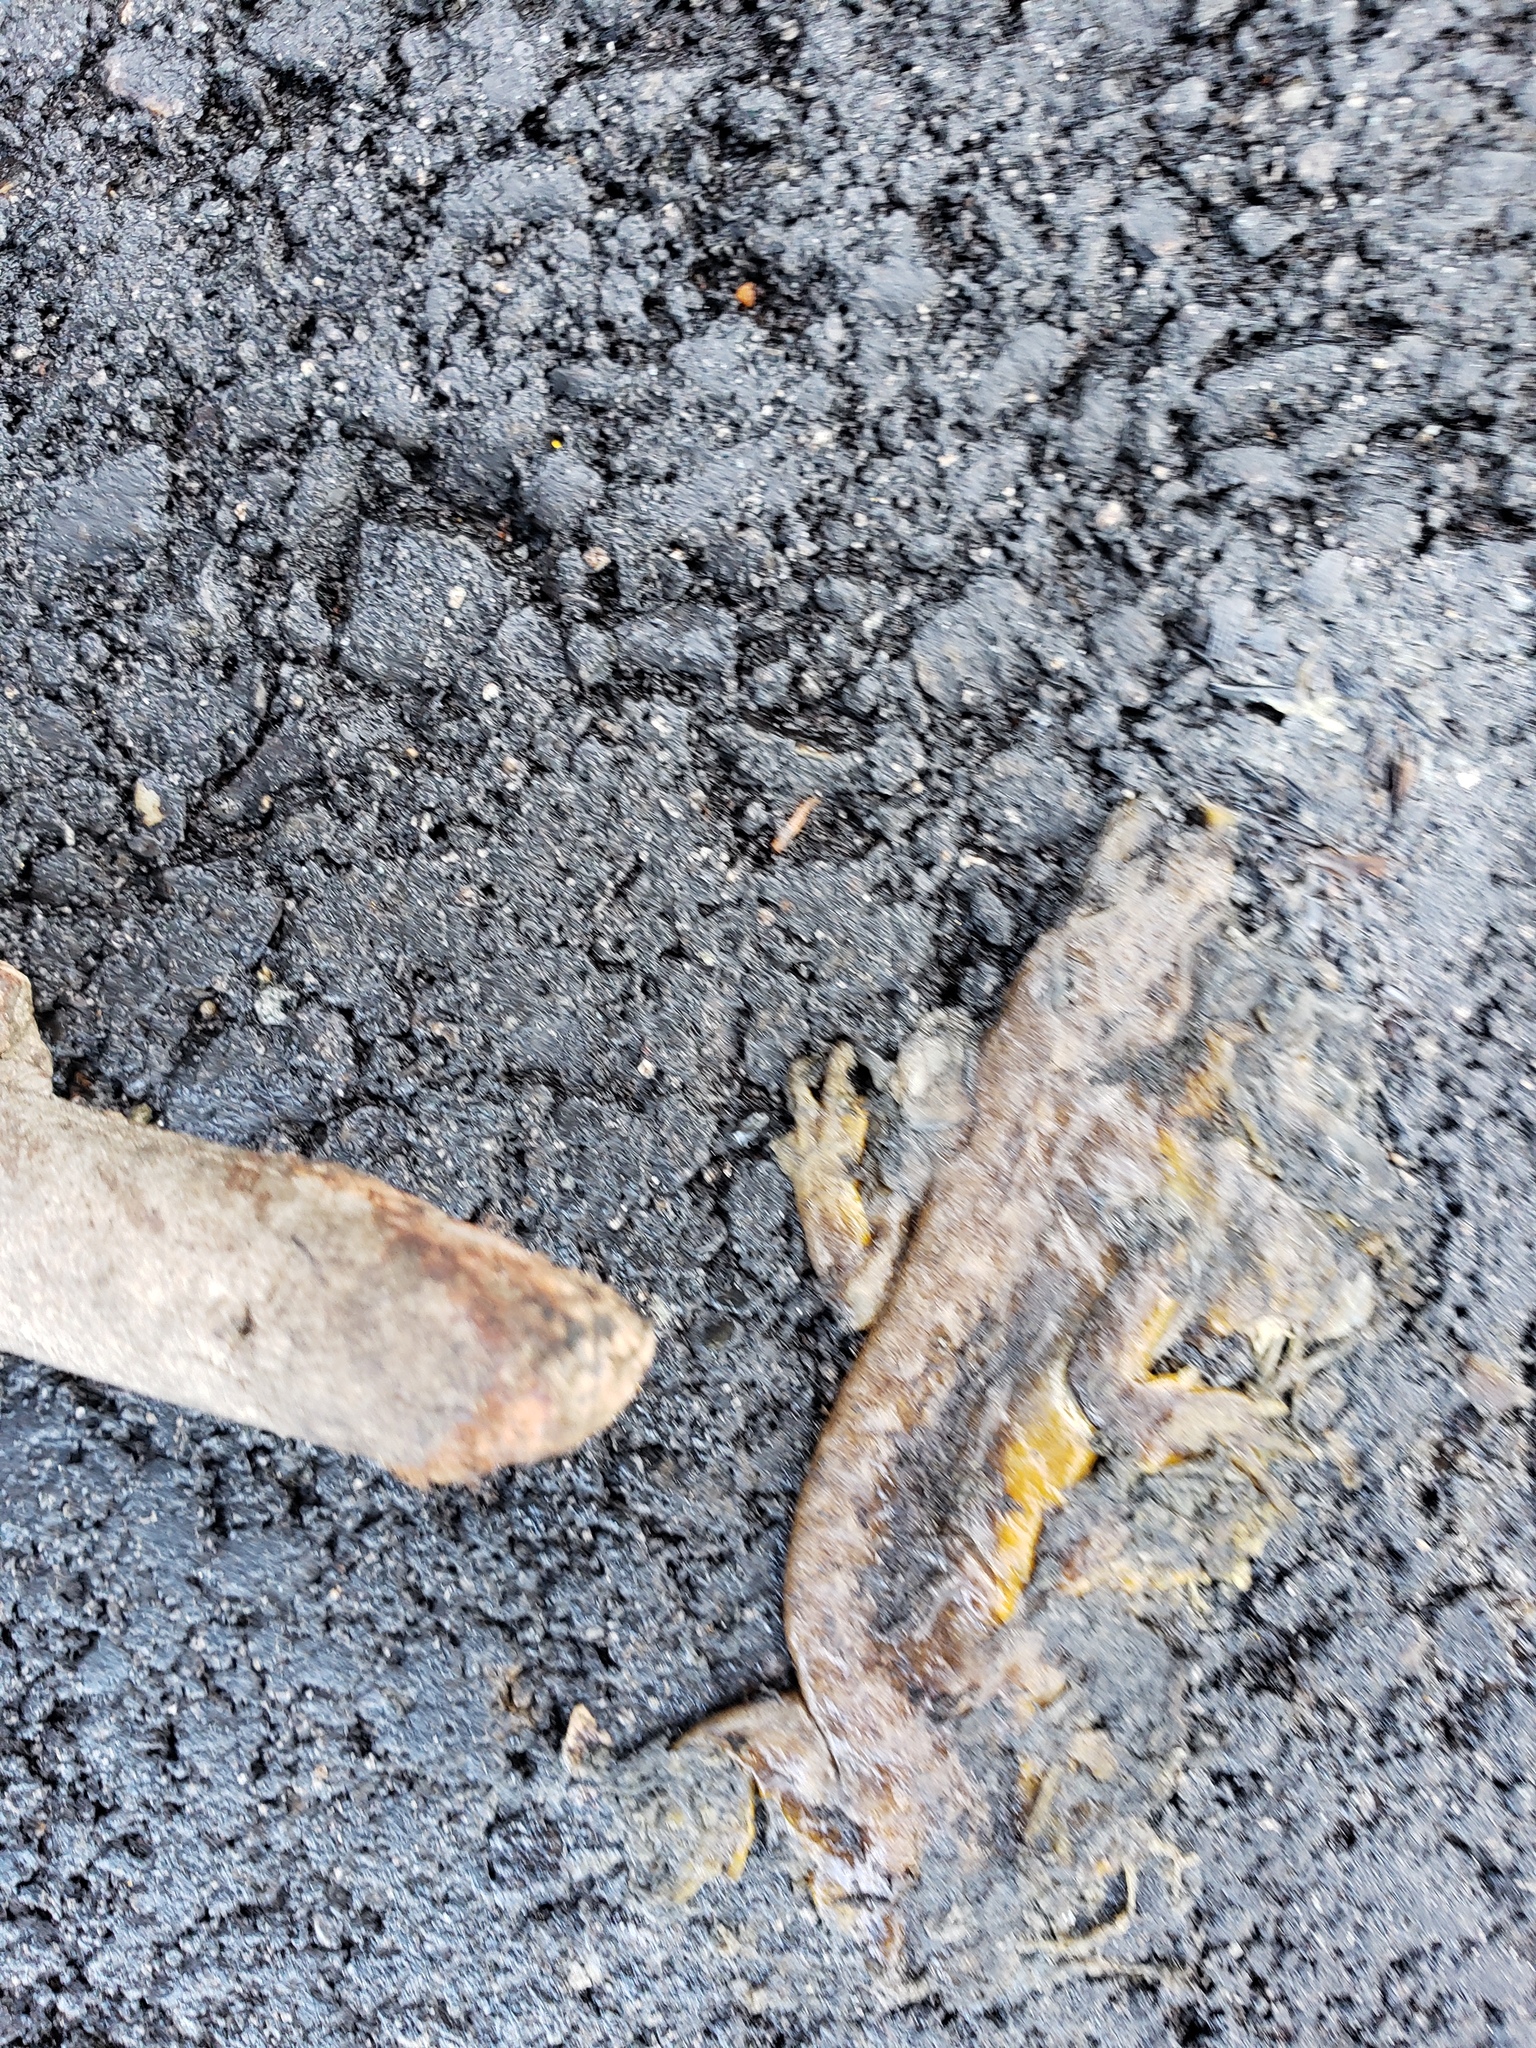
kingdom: Animalia
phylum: Chordata
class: Amphibia
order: Caudata
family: Salamandridae
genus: Taricha
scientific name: Taricha
